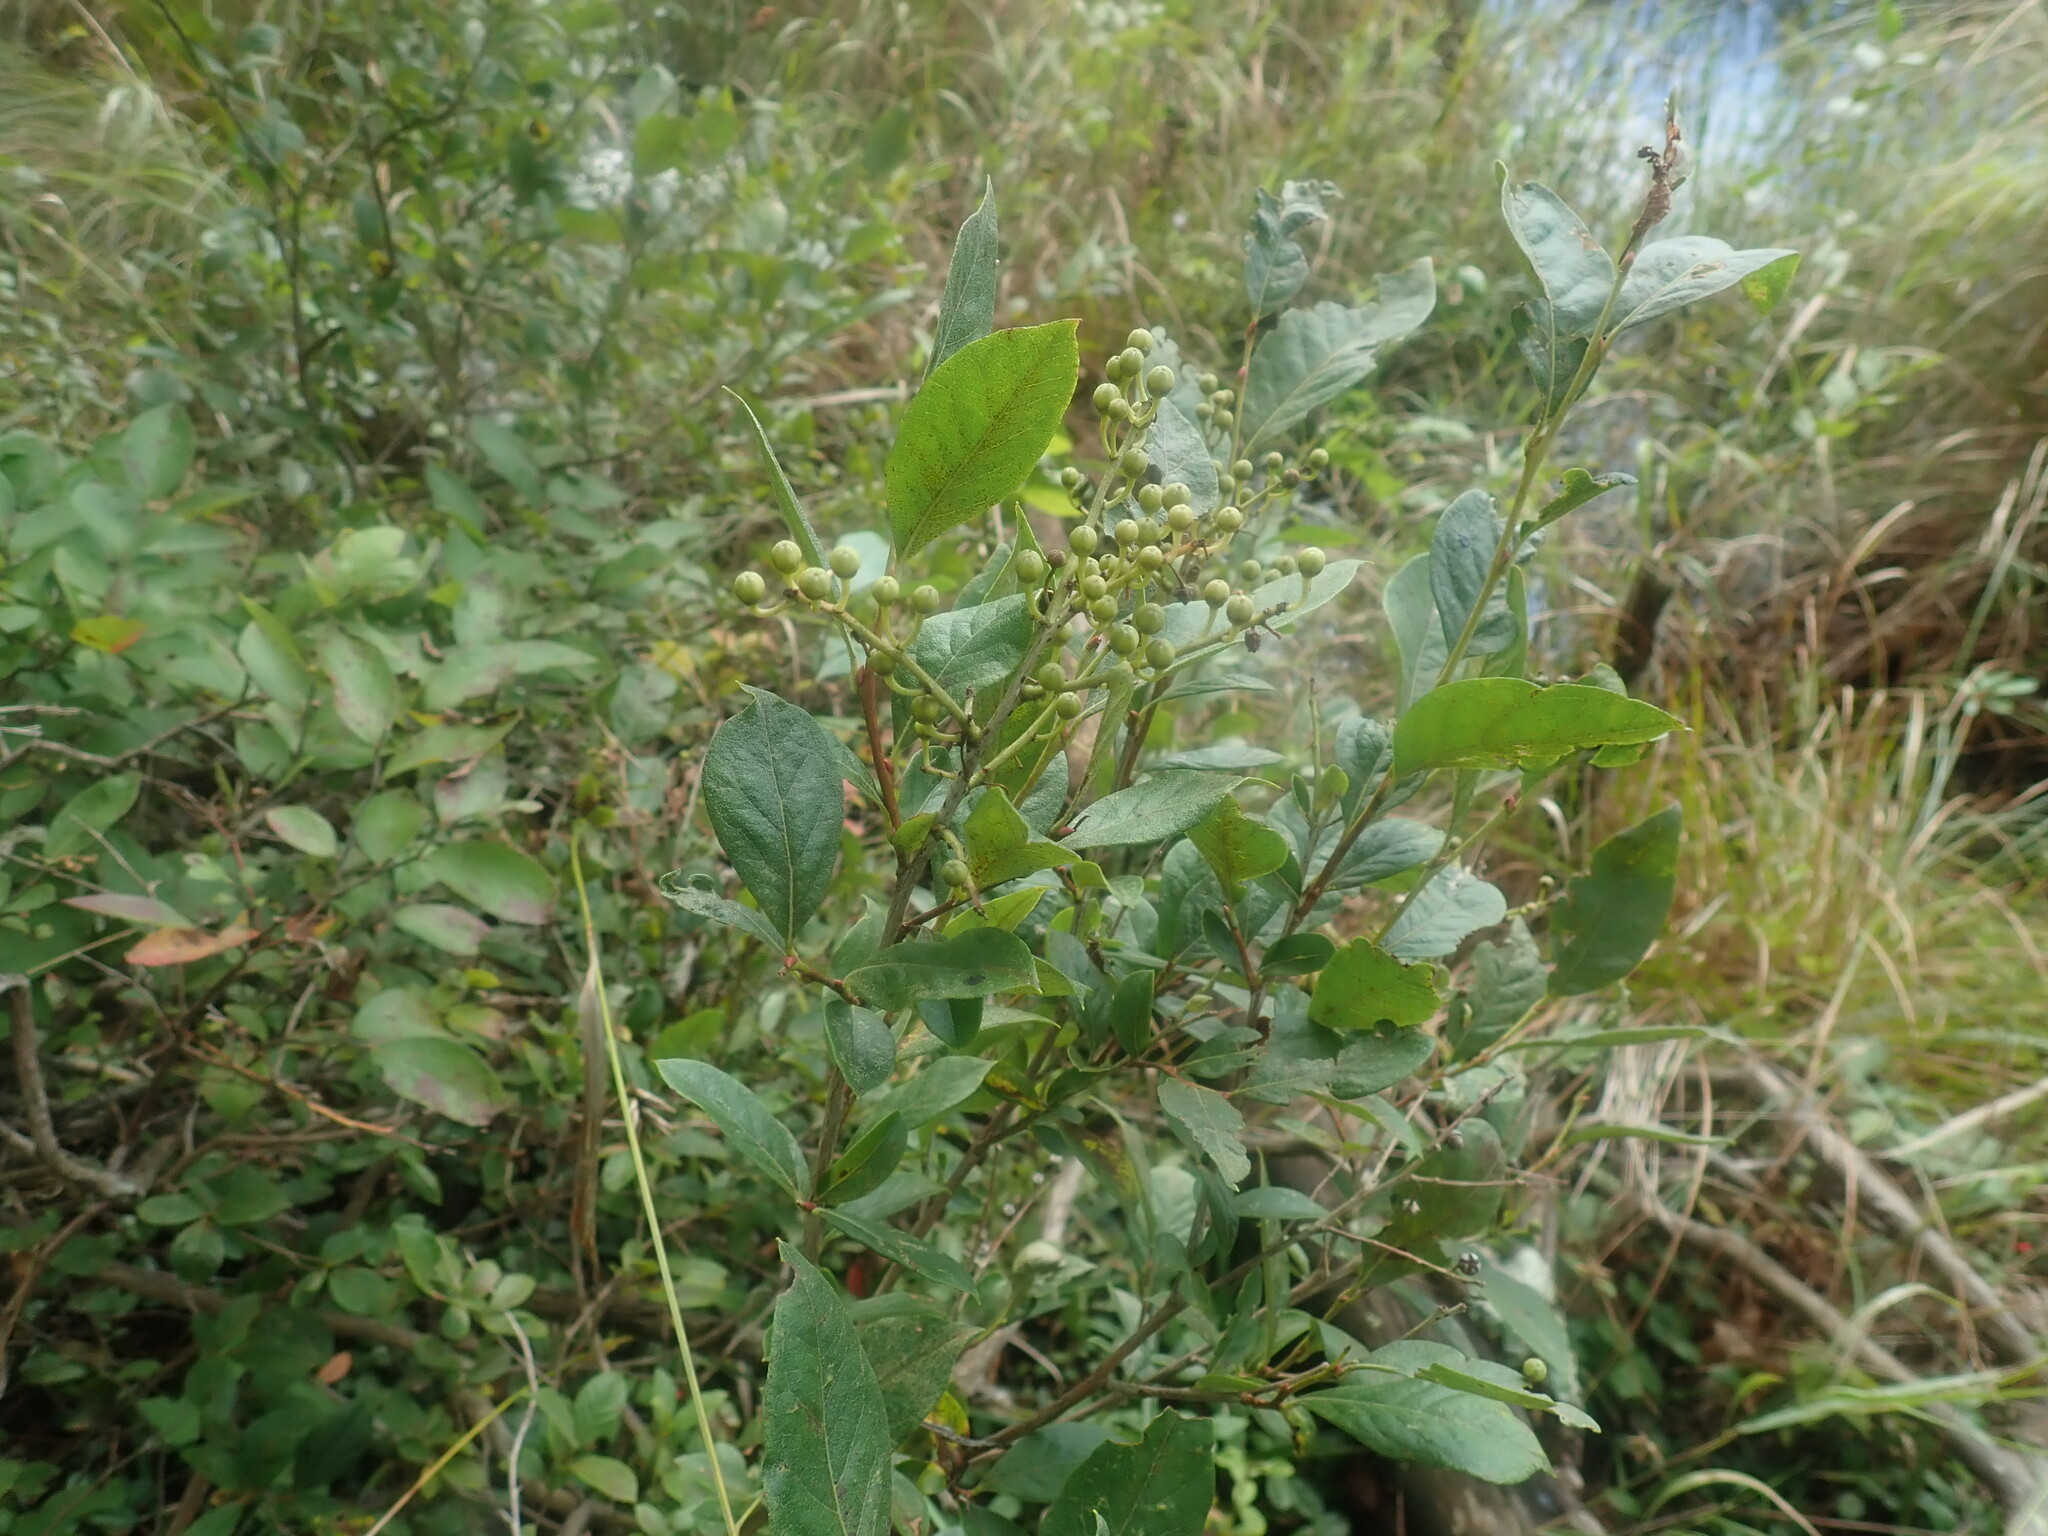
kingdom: Plantae
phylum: Tracheophyta
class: Magnoliopsida
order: Ericales
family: Ericaceae
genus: Lyonia
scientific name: Lyonia ligustrina
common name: Maleberry
